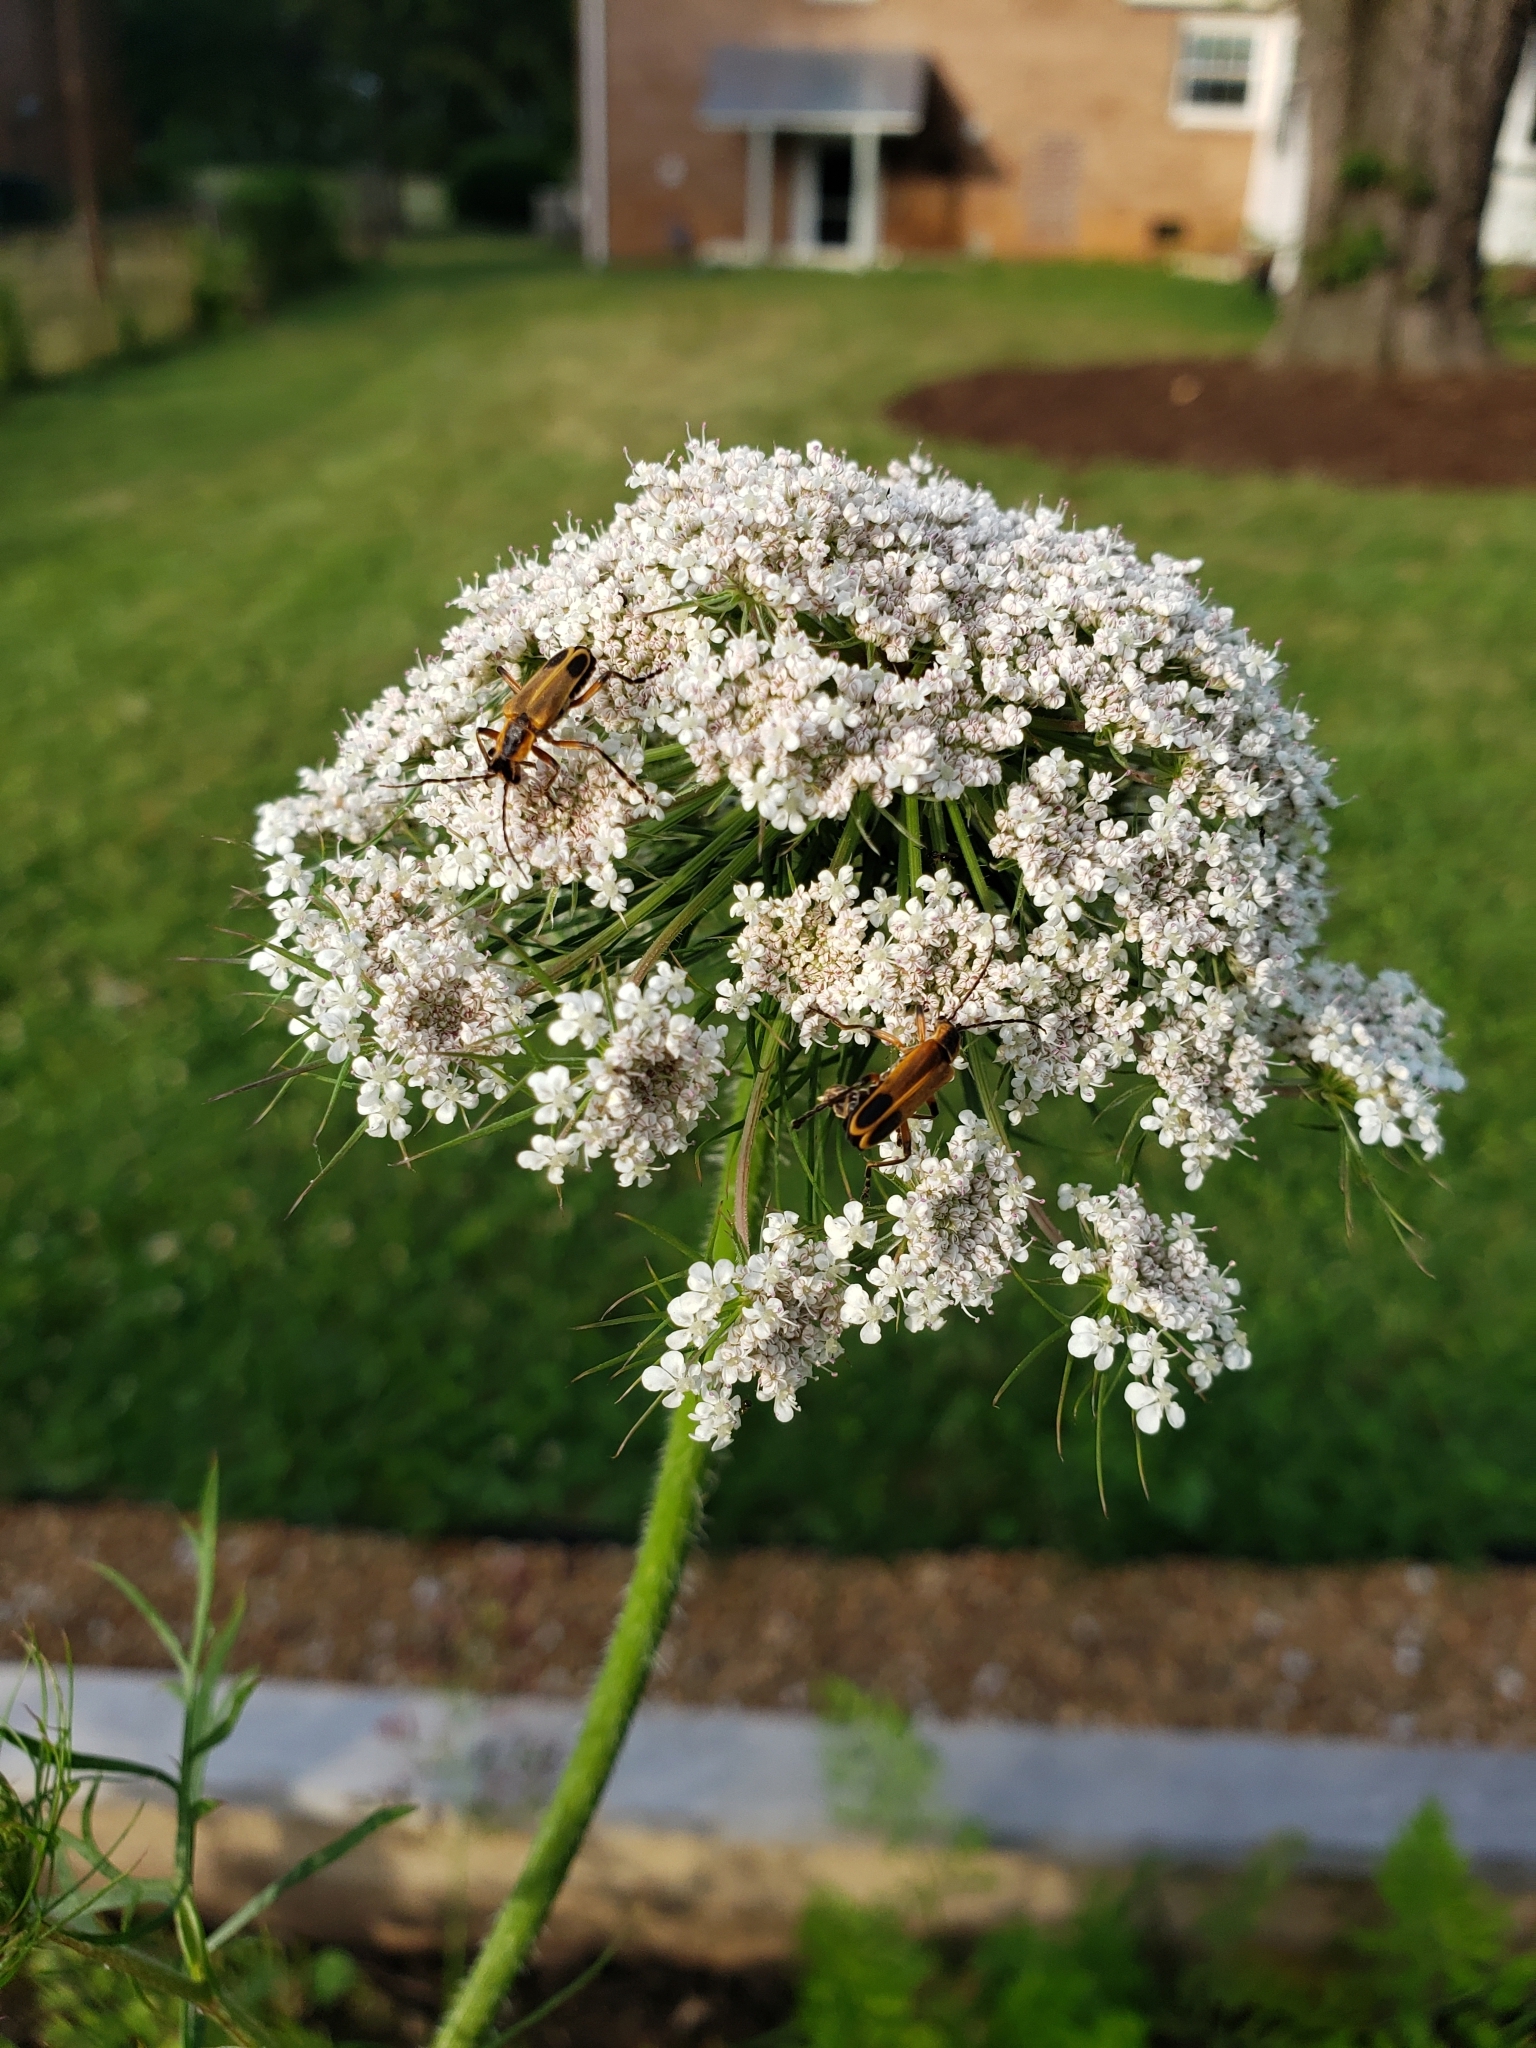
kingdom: Animalia
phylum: Arthropoda
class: Insecta
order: Coleoptera
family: Cantharidae
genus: Chauliognathus
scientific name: Chauliognathus marginatus
